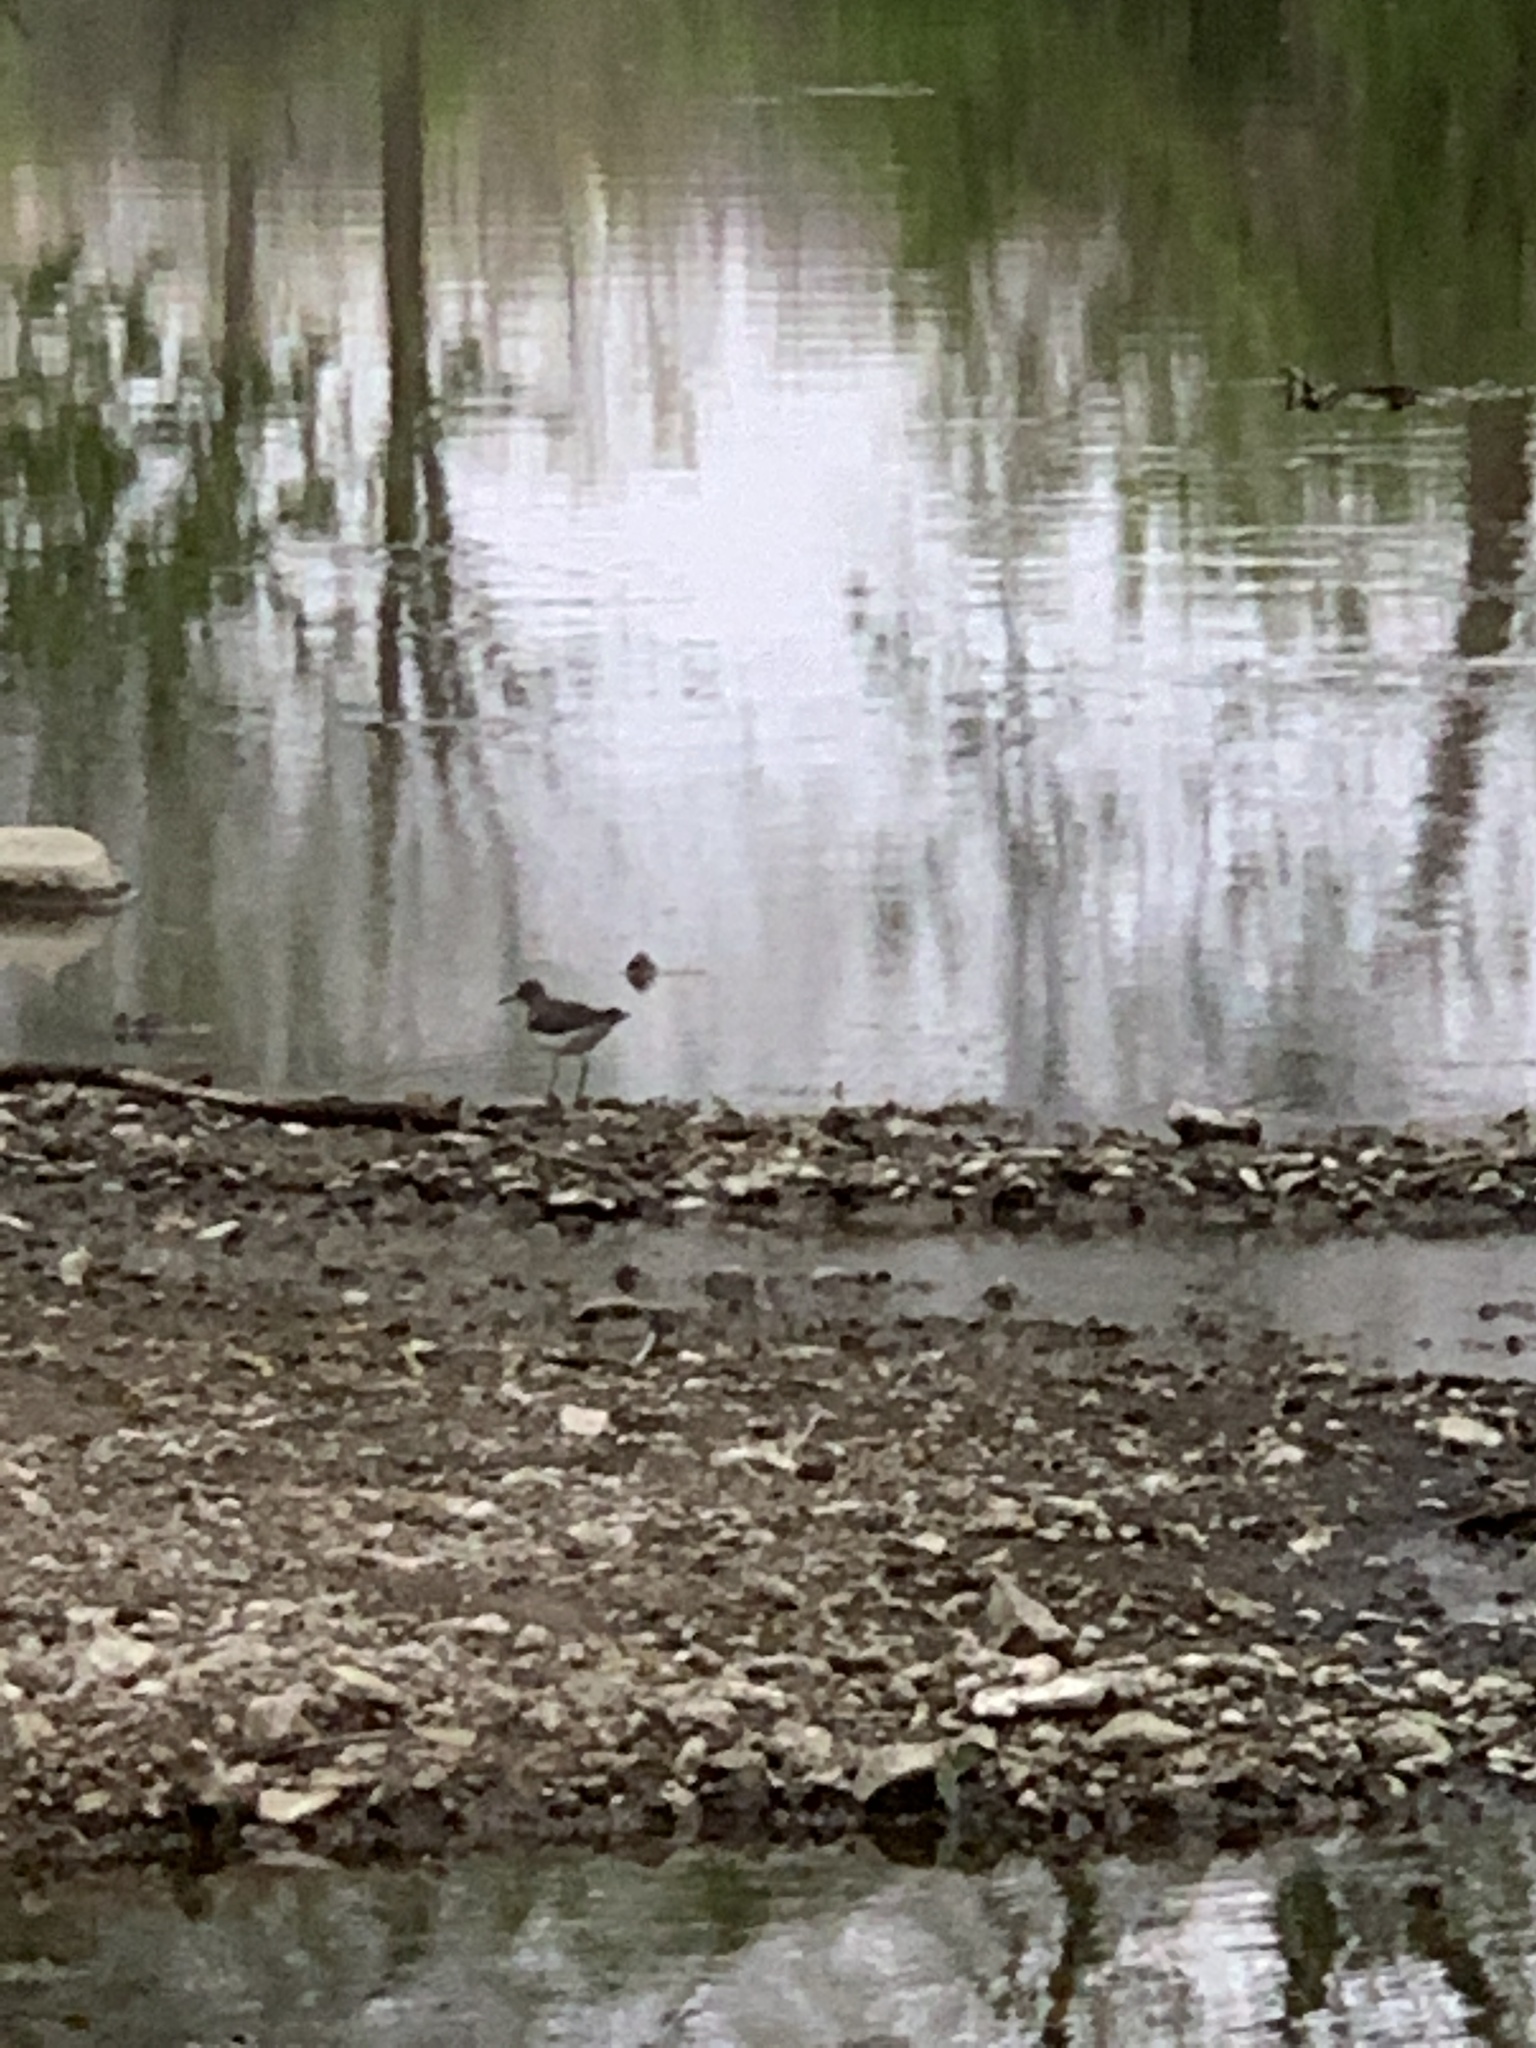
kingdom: Animalia
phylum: Chordata
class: Aves
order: Charadriiformes
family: Scolopacidae
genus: Tringa
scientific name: Tringa solitaria
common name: Solitary sandpiper
